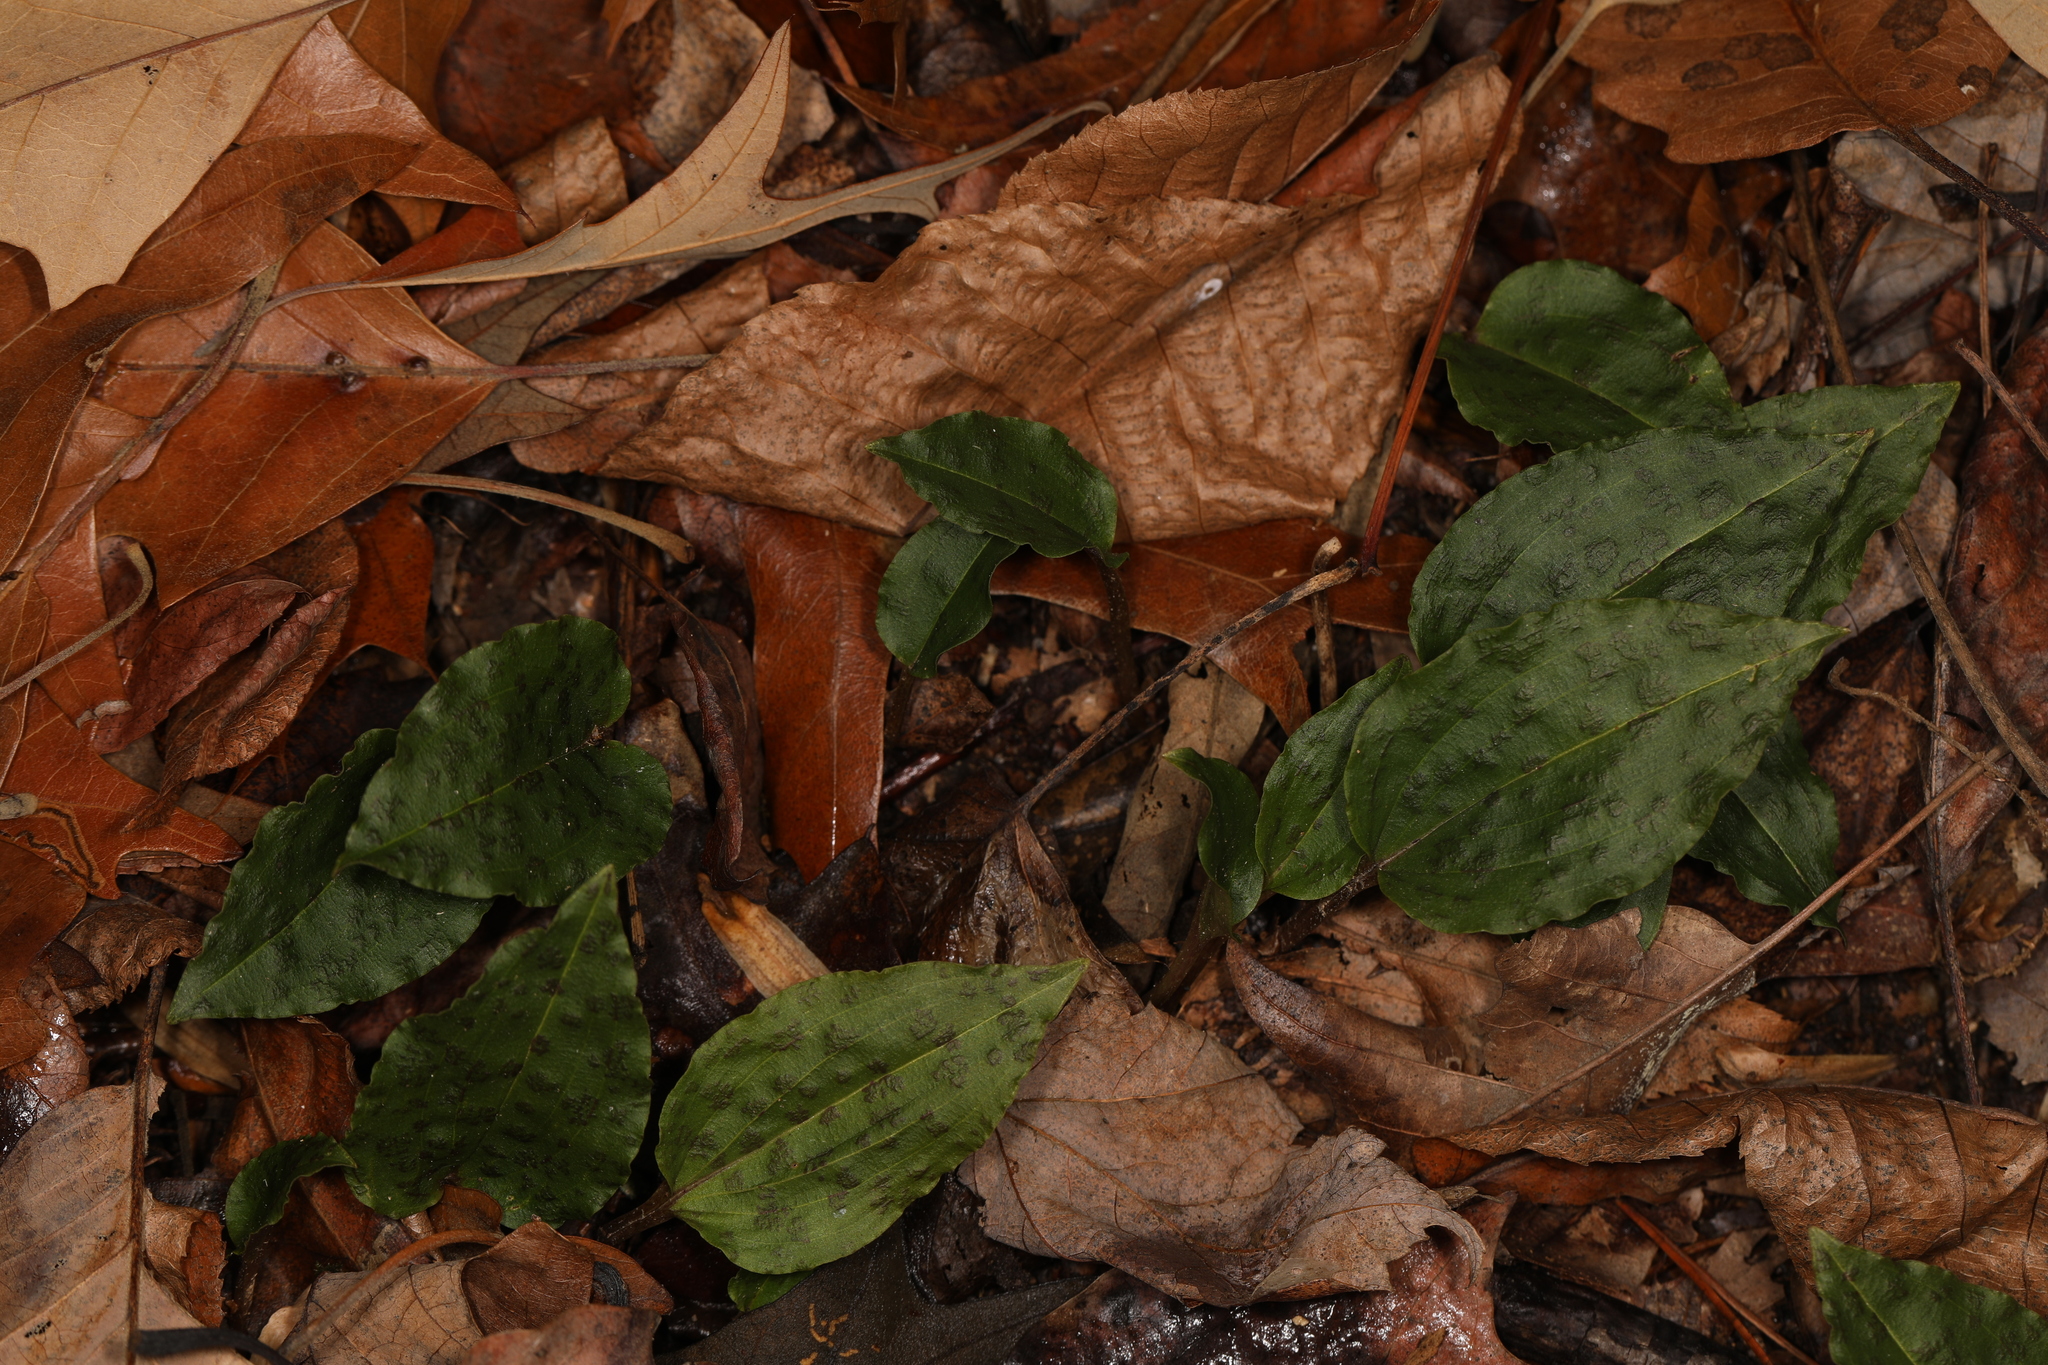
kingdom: Plantae
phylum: Tracheophyta
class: Liliopsida
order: Asparagales
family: Orchidaceae
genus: Tipularia
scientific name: Tipularia discolor
